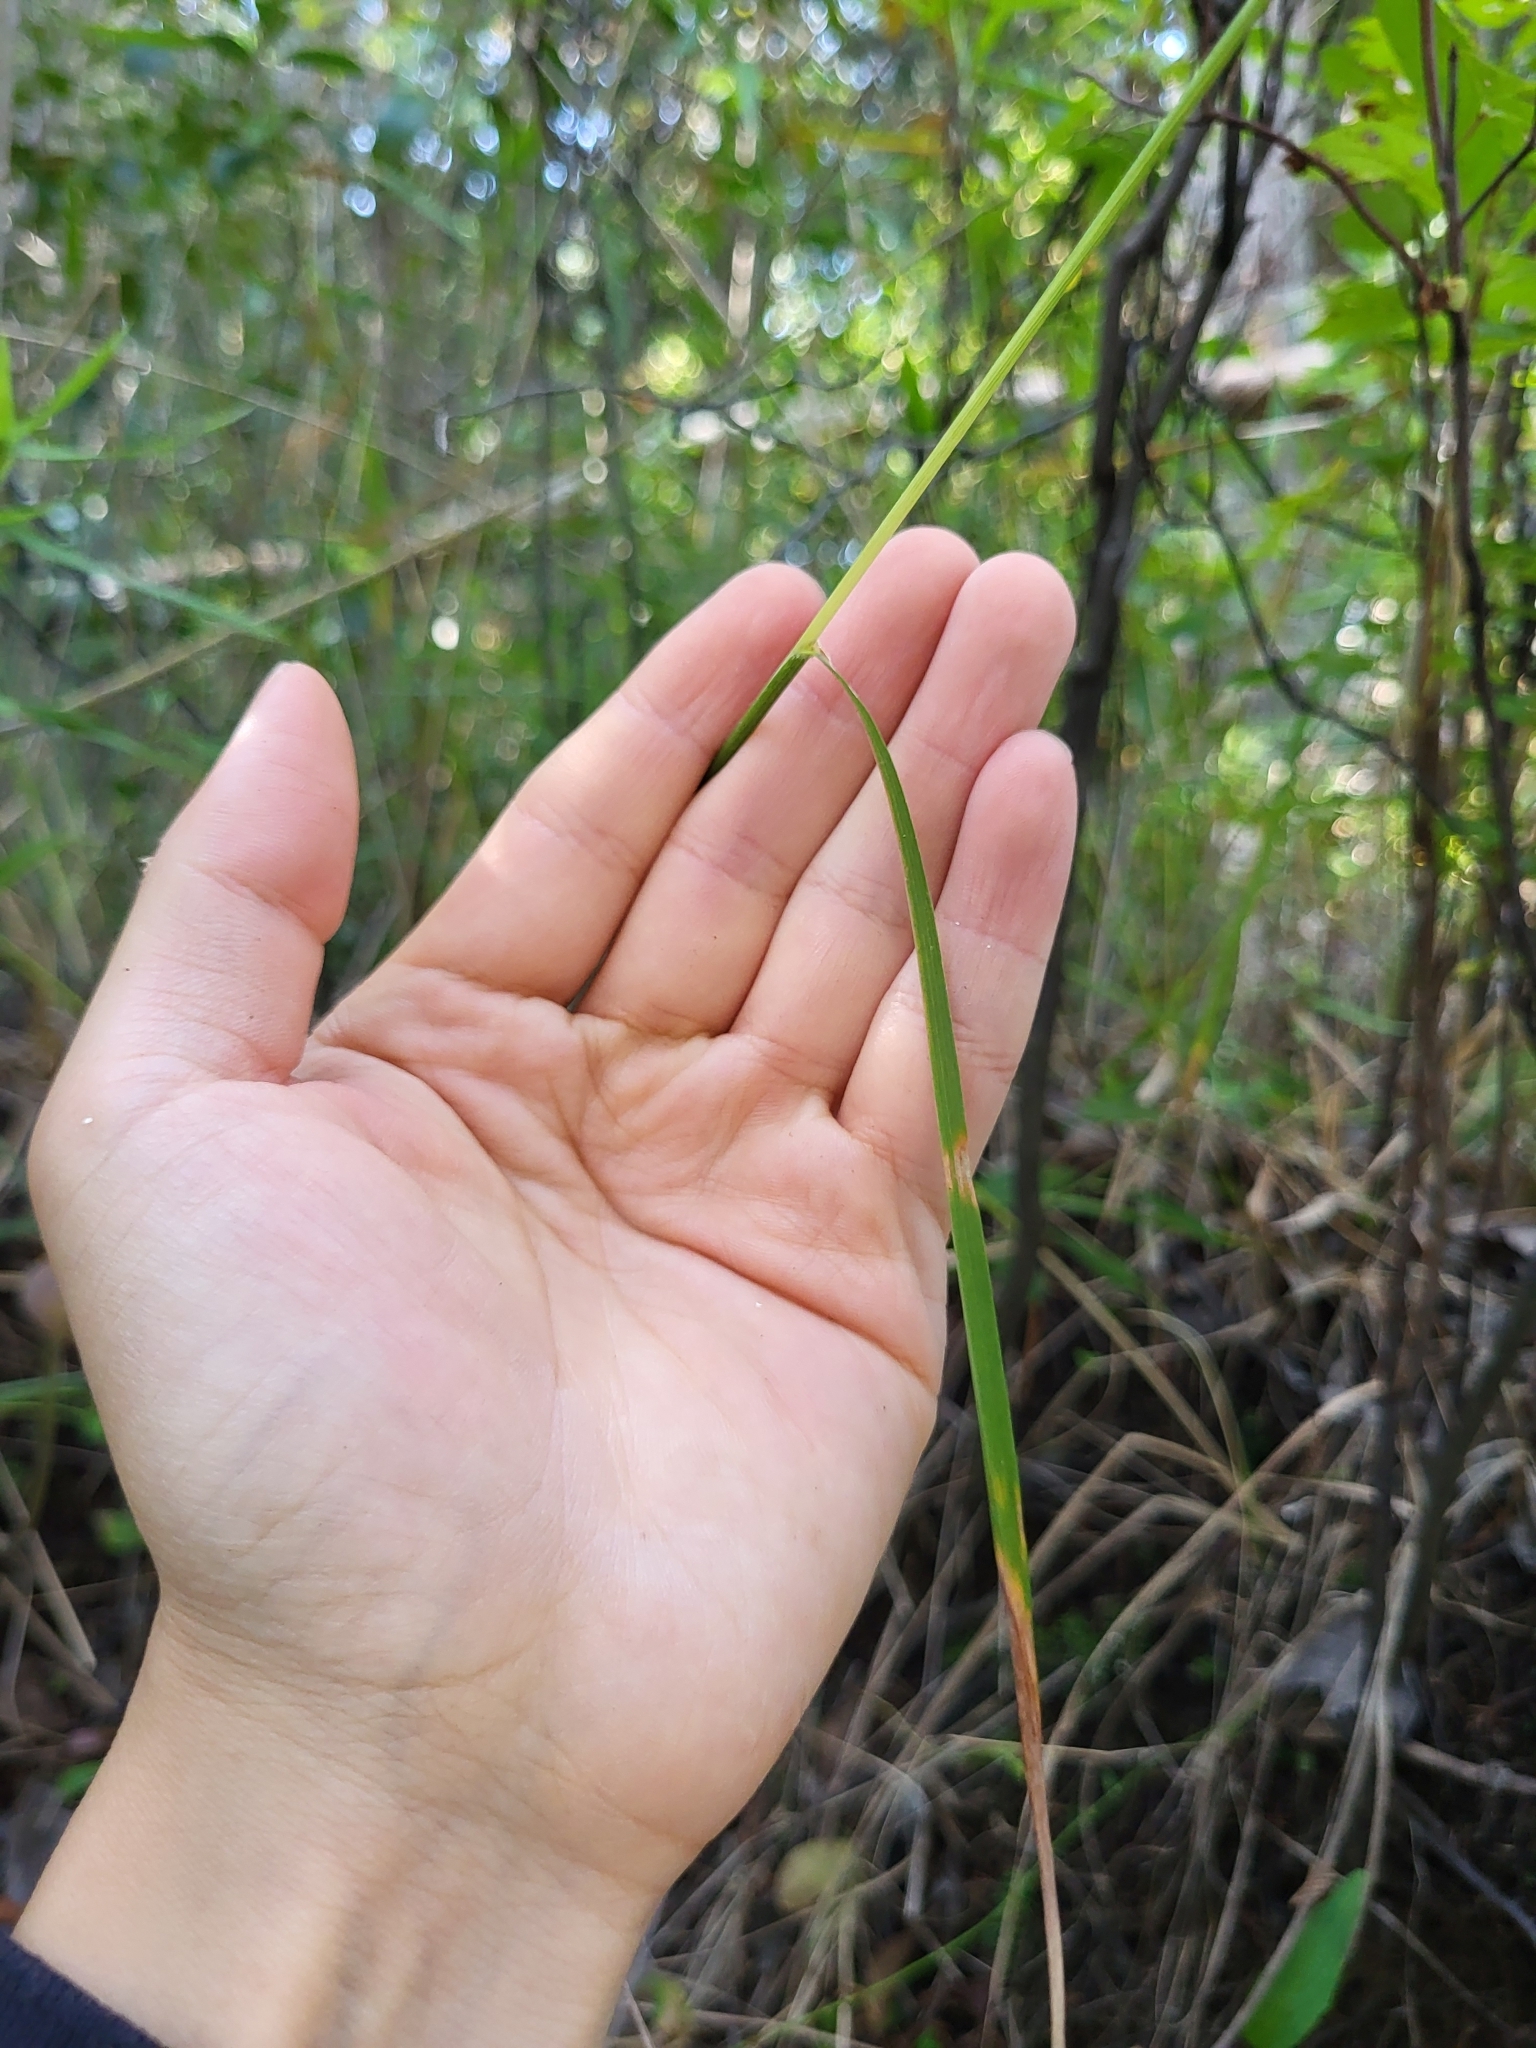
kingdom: Plantae
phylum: Tracheophyta
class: Liliopsida
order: Poales
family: Poaceae
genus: Greeneochloa
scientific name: Greeneochloa coarctata
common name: Small reedgrass
